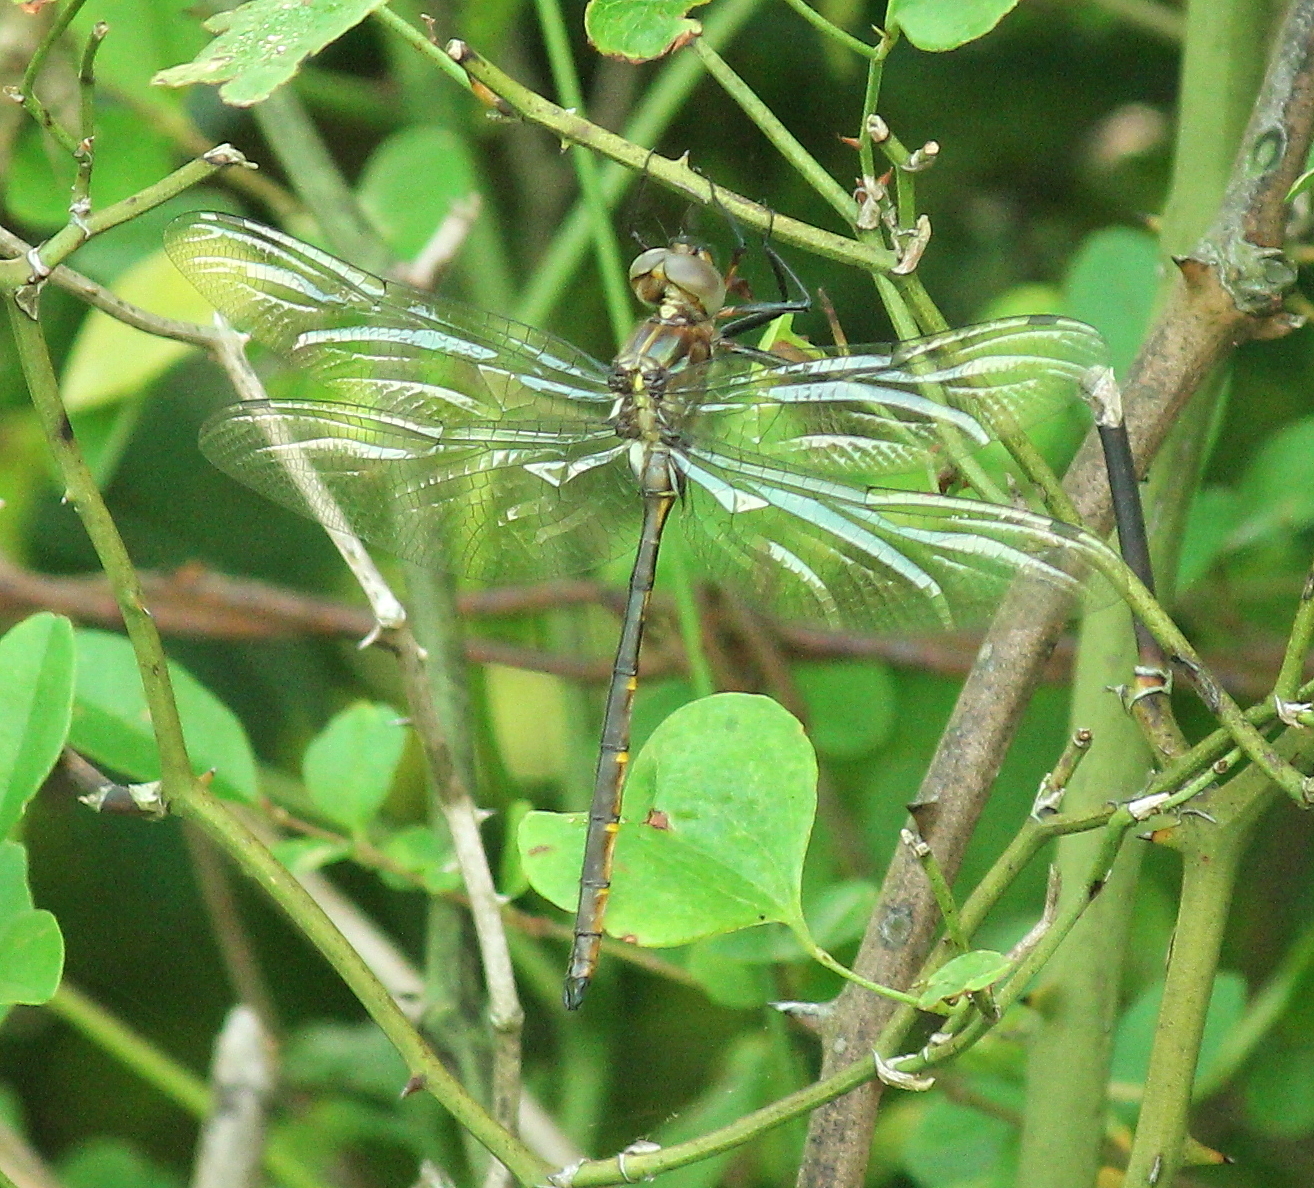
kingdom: Animalia
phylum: Arthropoda
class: Insecta
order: Odonata
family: Corduliidae
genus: Somatochlora
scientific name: Somatochlora linearis
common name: Mocha emerald
